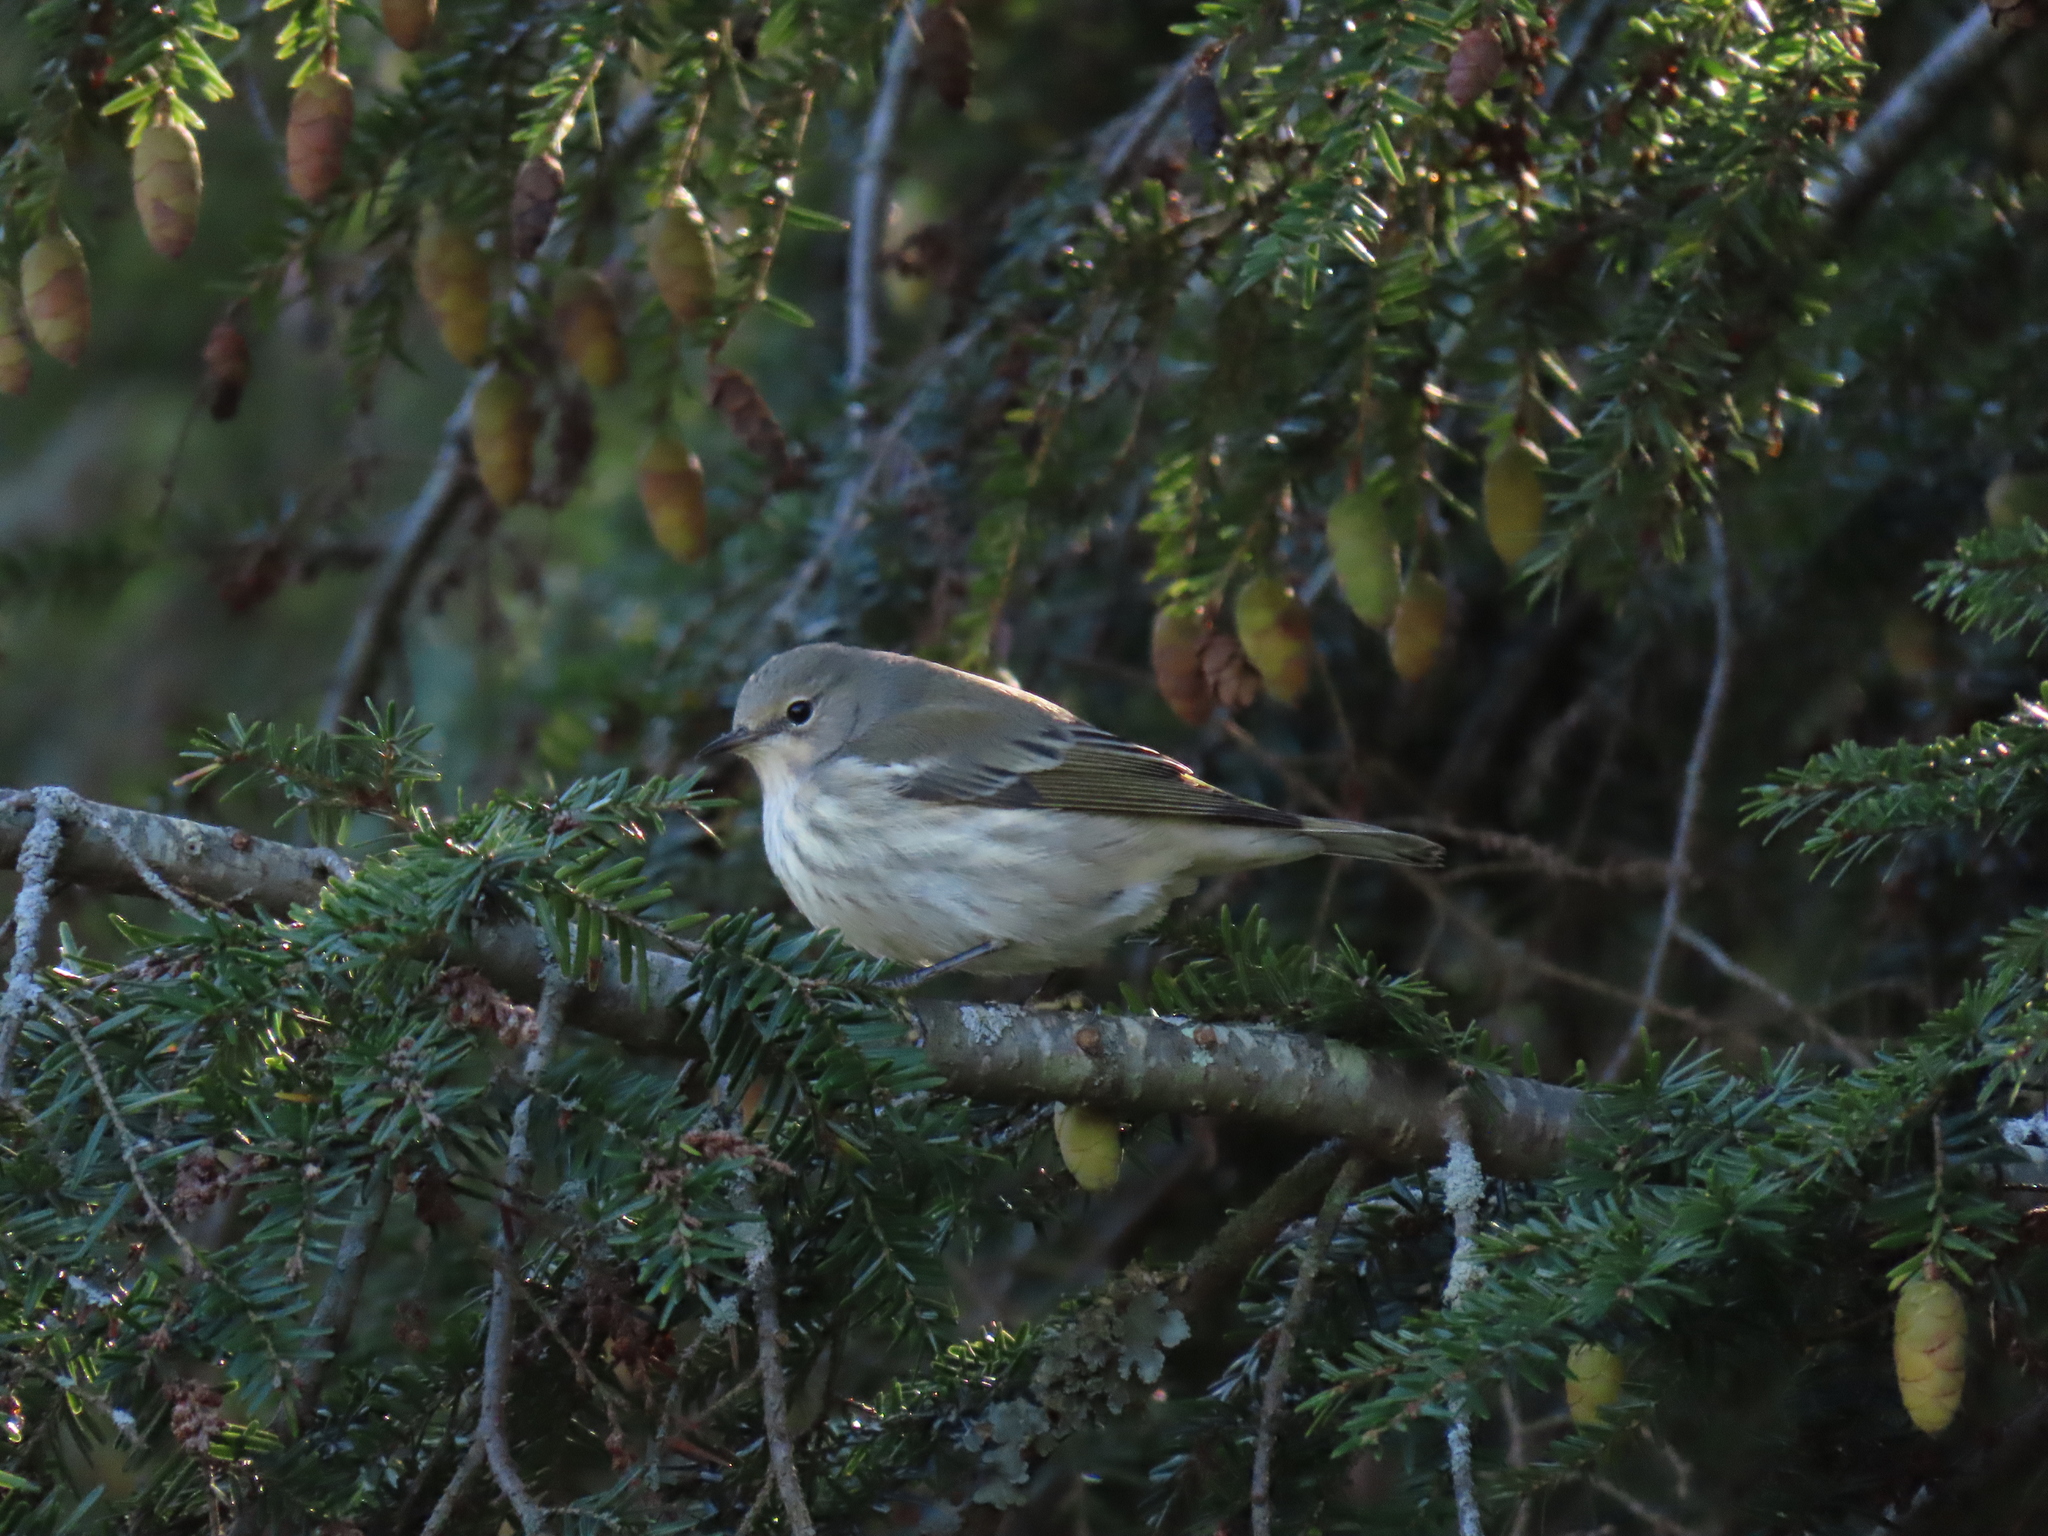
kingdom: Animalia
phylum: Chordata
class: Aves
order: Passeriformes
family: Parulidae
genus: Setophaga
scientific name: Setophaga tigrina
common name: Cape may warbler
